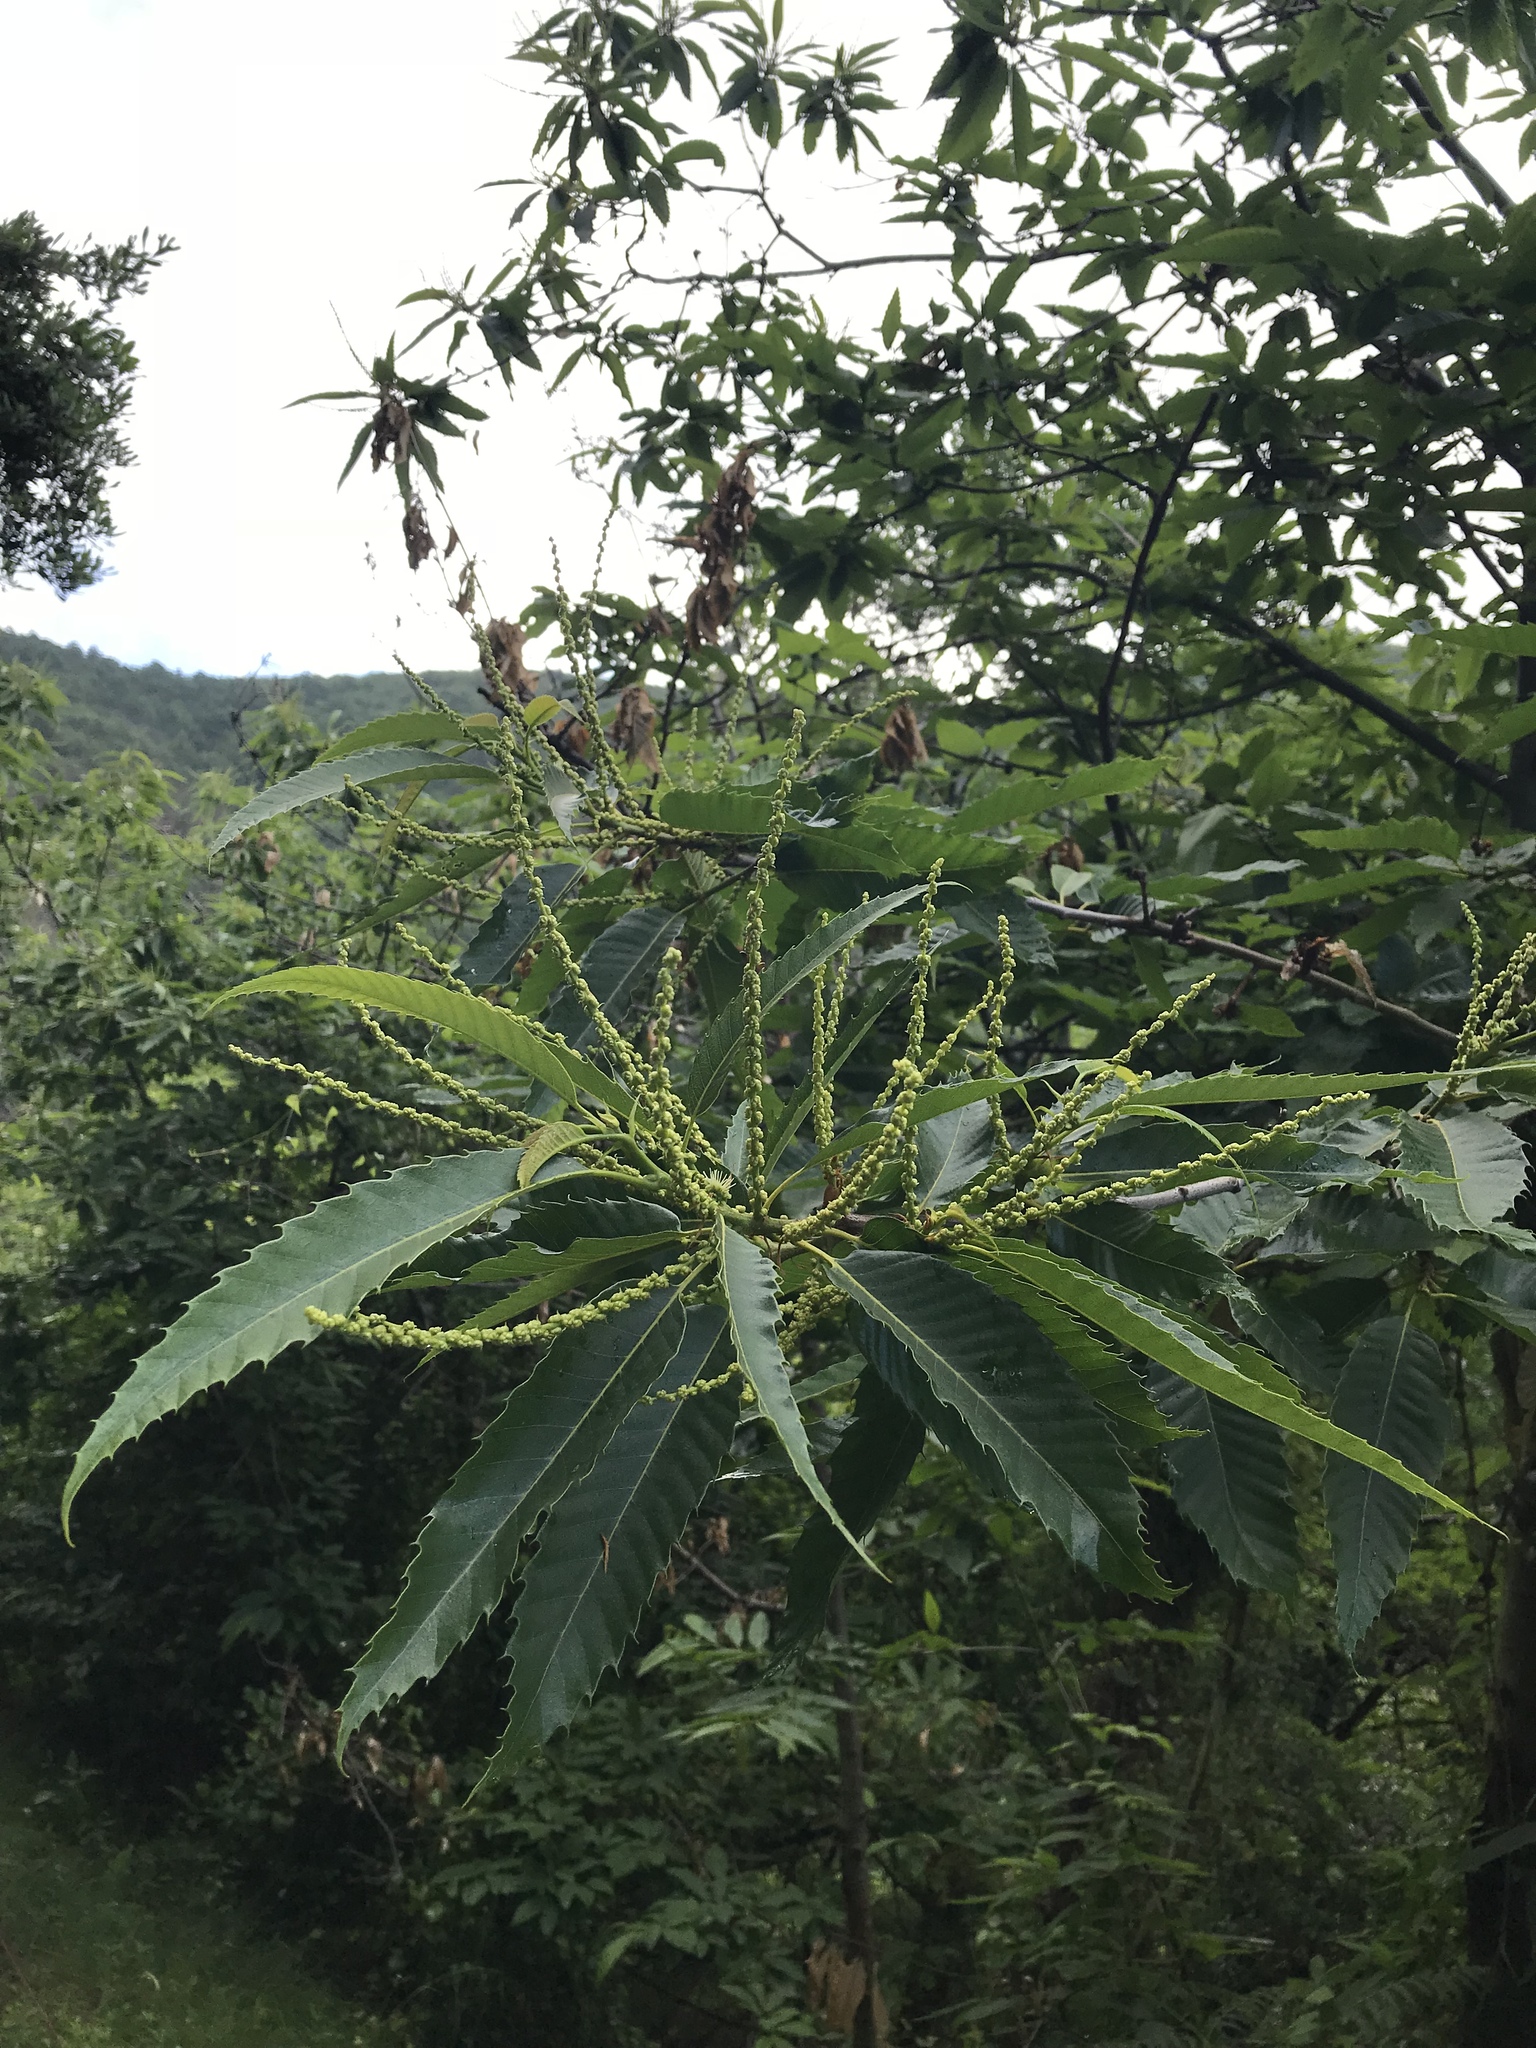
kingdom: Plantae
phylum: Tracheophyta
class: Magnoliopsida
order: Fagales
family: Fagaceae
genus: Castanea
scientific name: Castanea sativa
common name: Sweet chestnut
